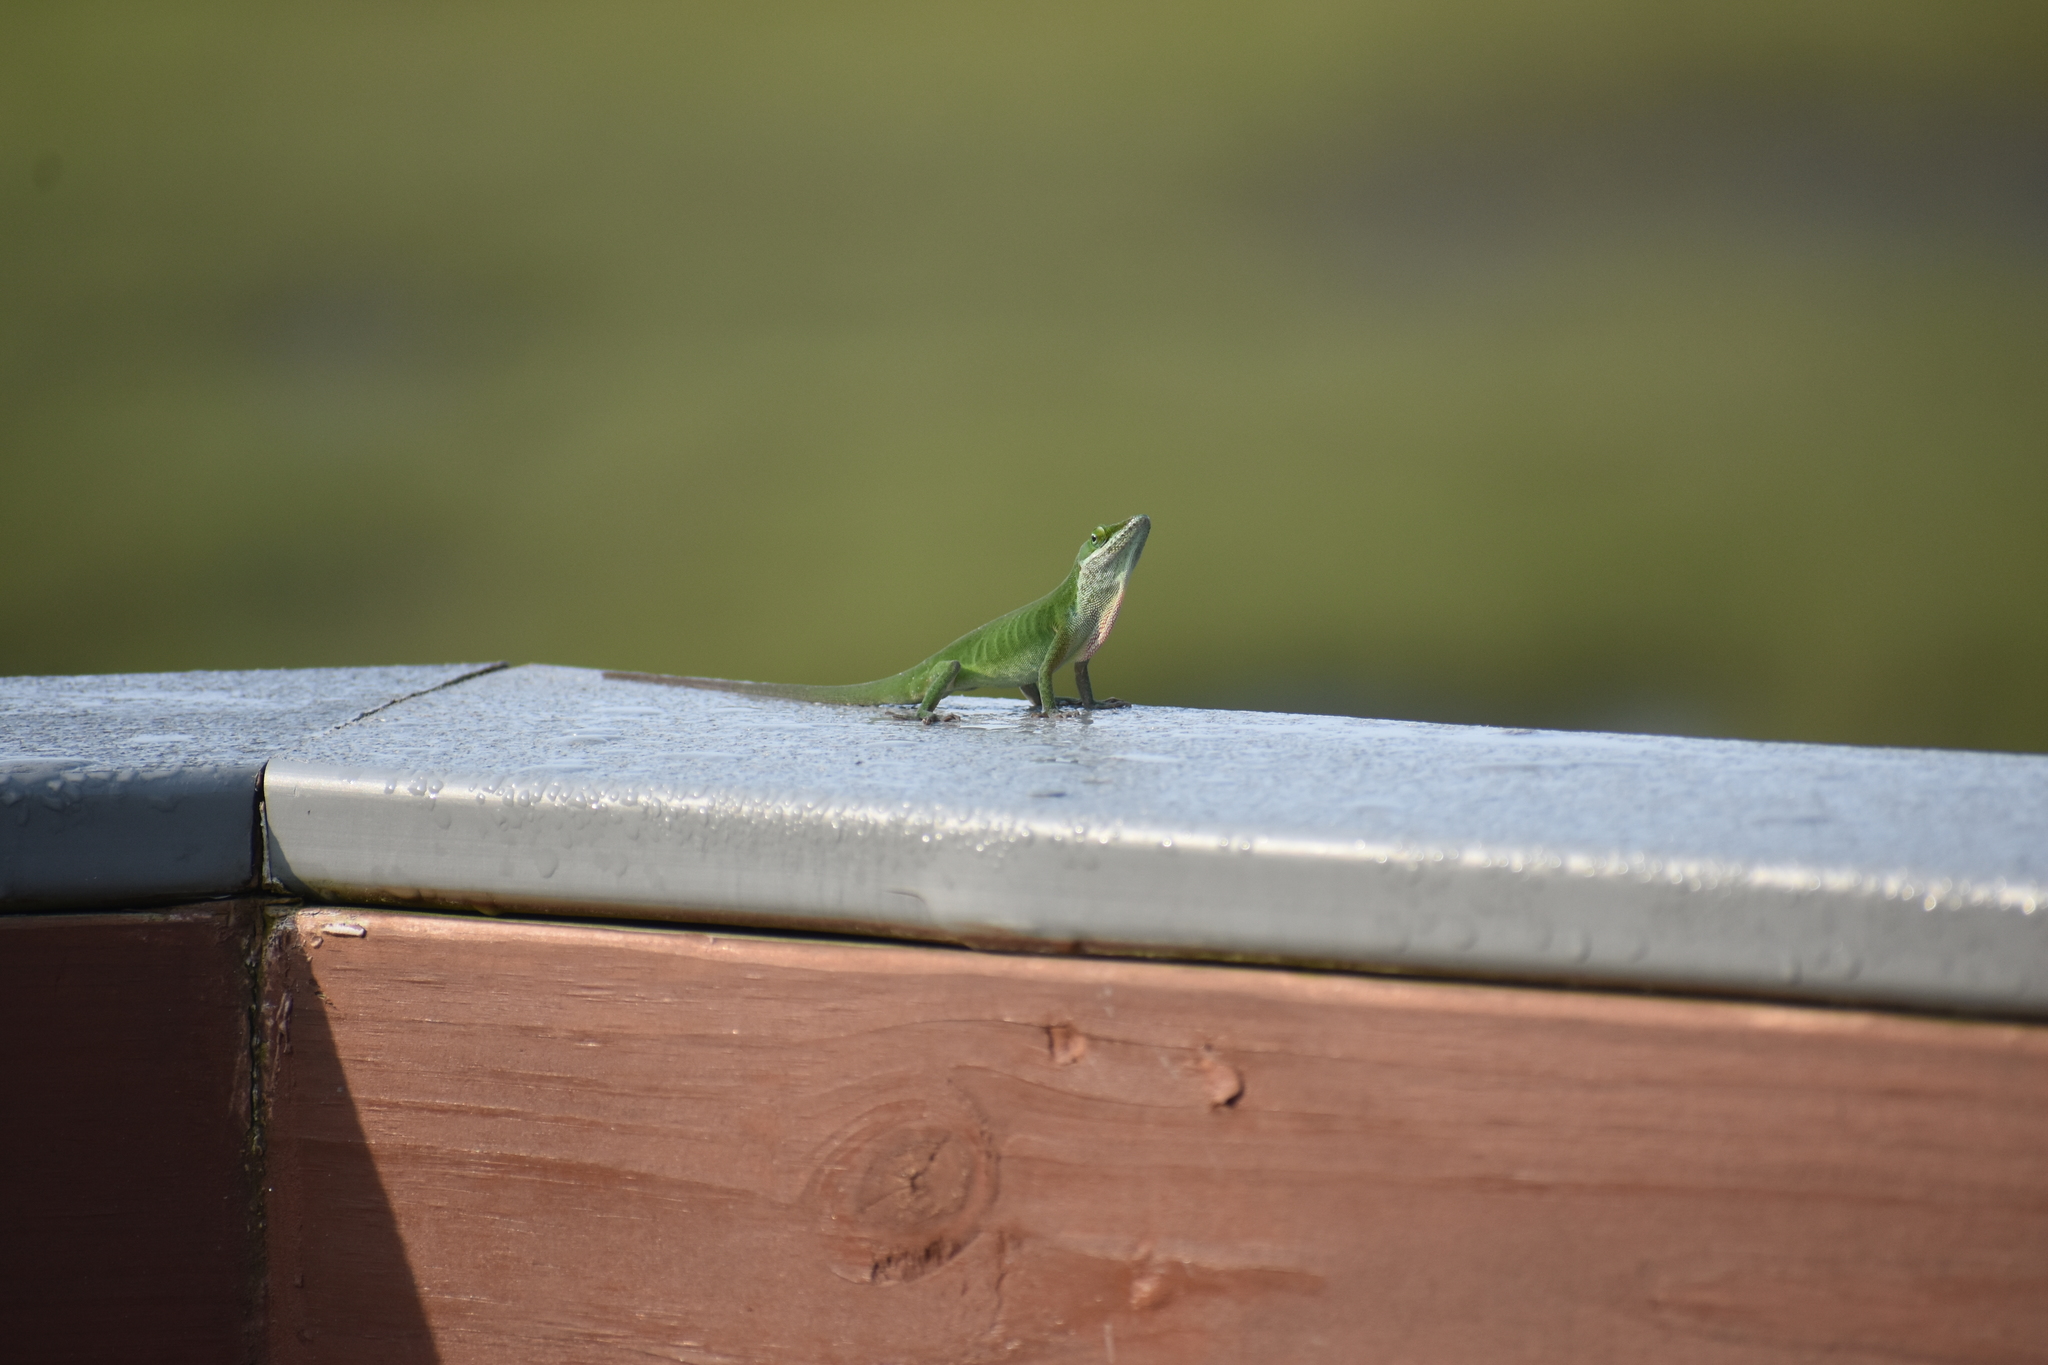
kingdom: Animalia
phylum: Chordata
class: Squamata
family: Dactyloidae
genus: Anolis
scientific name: Anolis carolinensis
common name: Green anole
